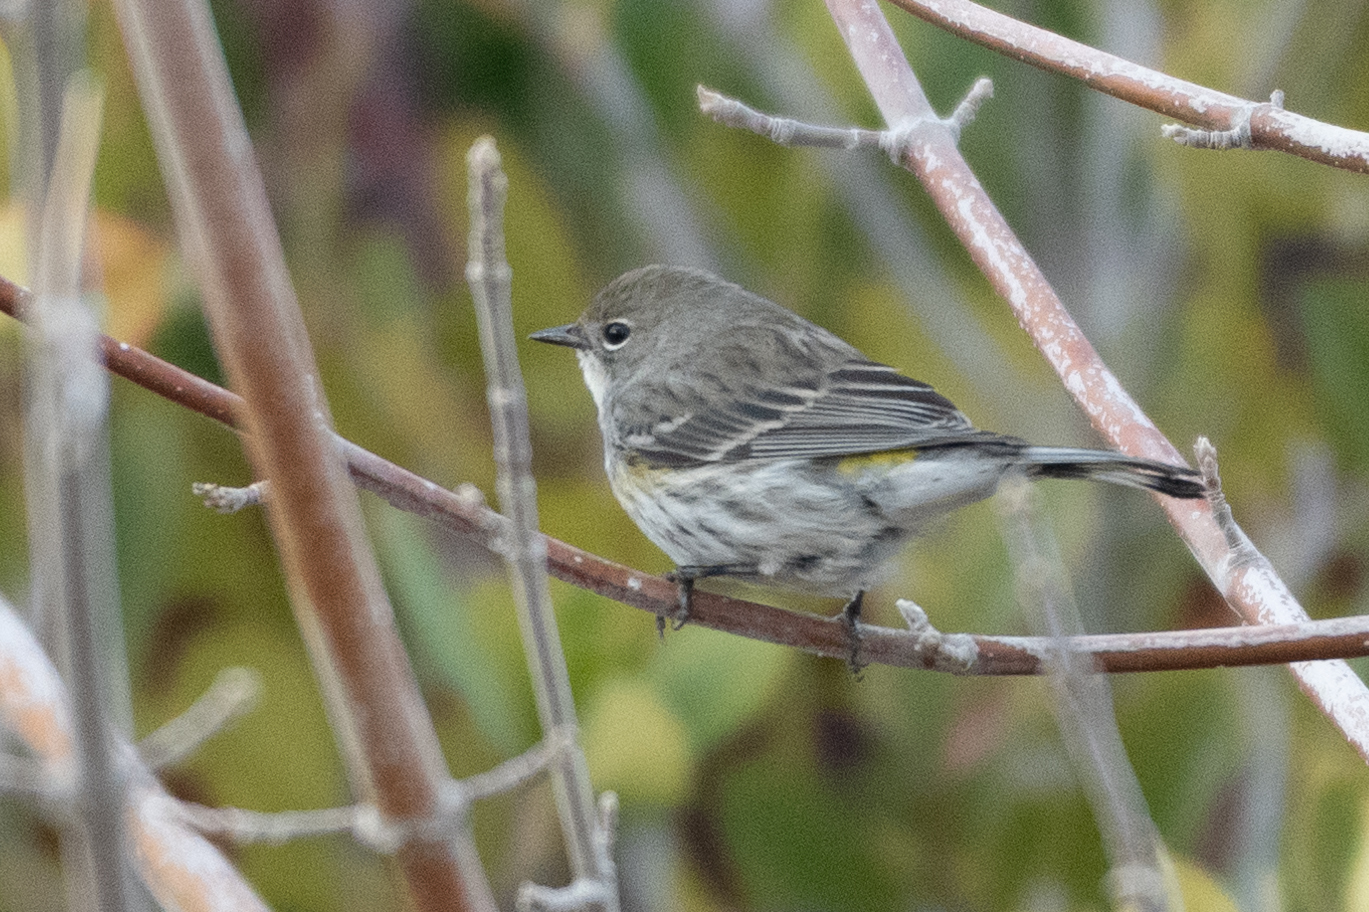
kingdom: Animalia
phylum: Chordata
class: Aves
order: Passeriformes
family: Parulidae
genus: Setophaga
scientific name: Setophaga coronata
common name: Myrtle warbler
